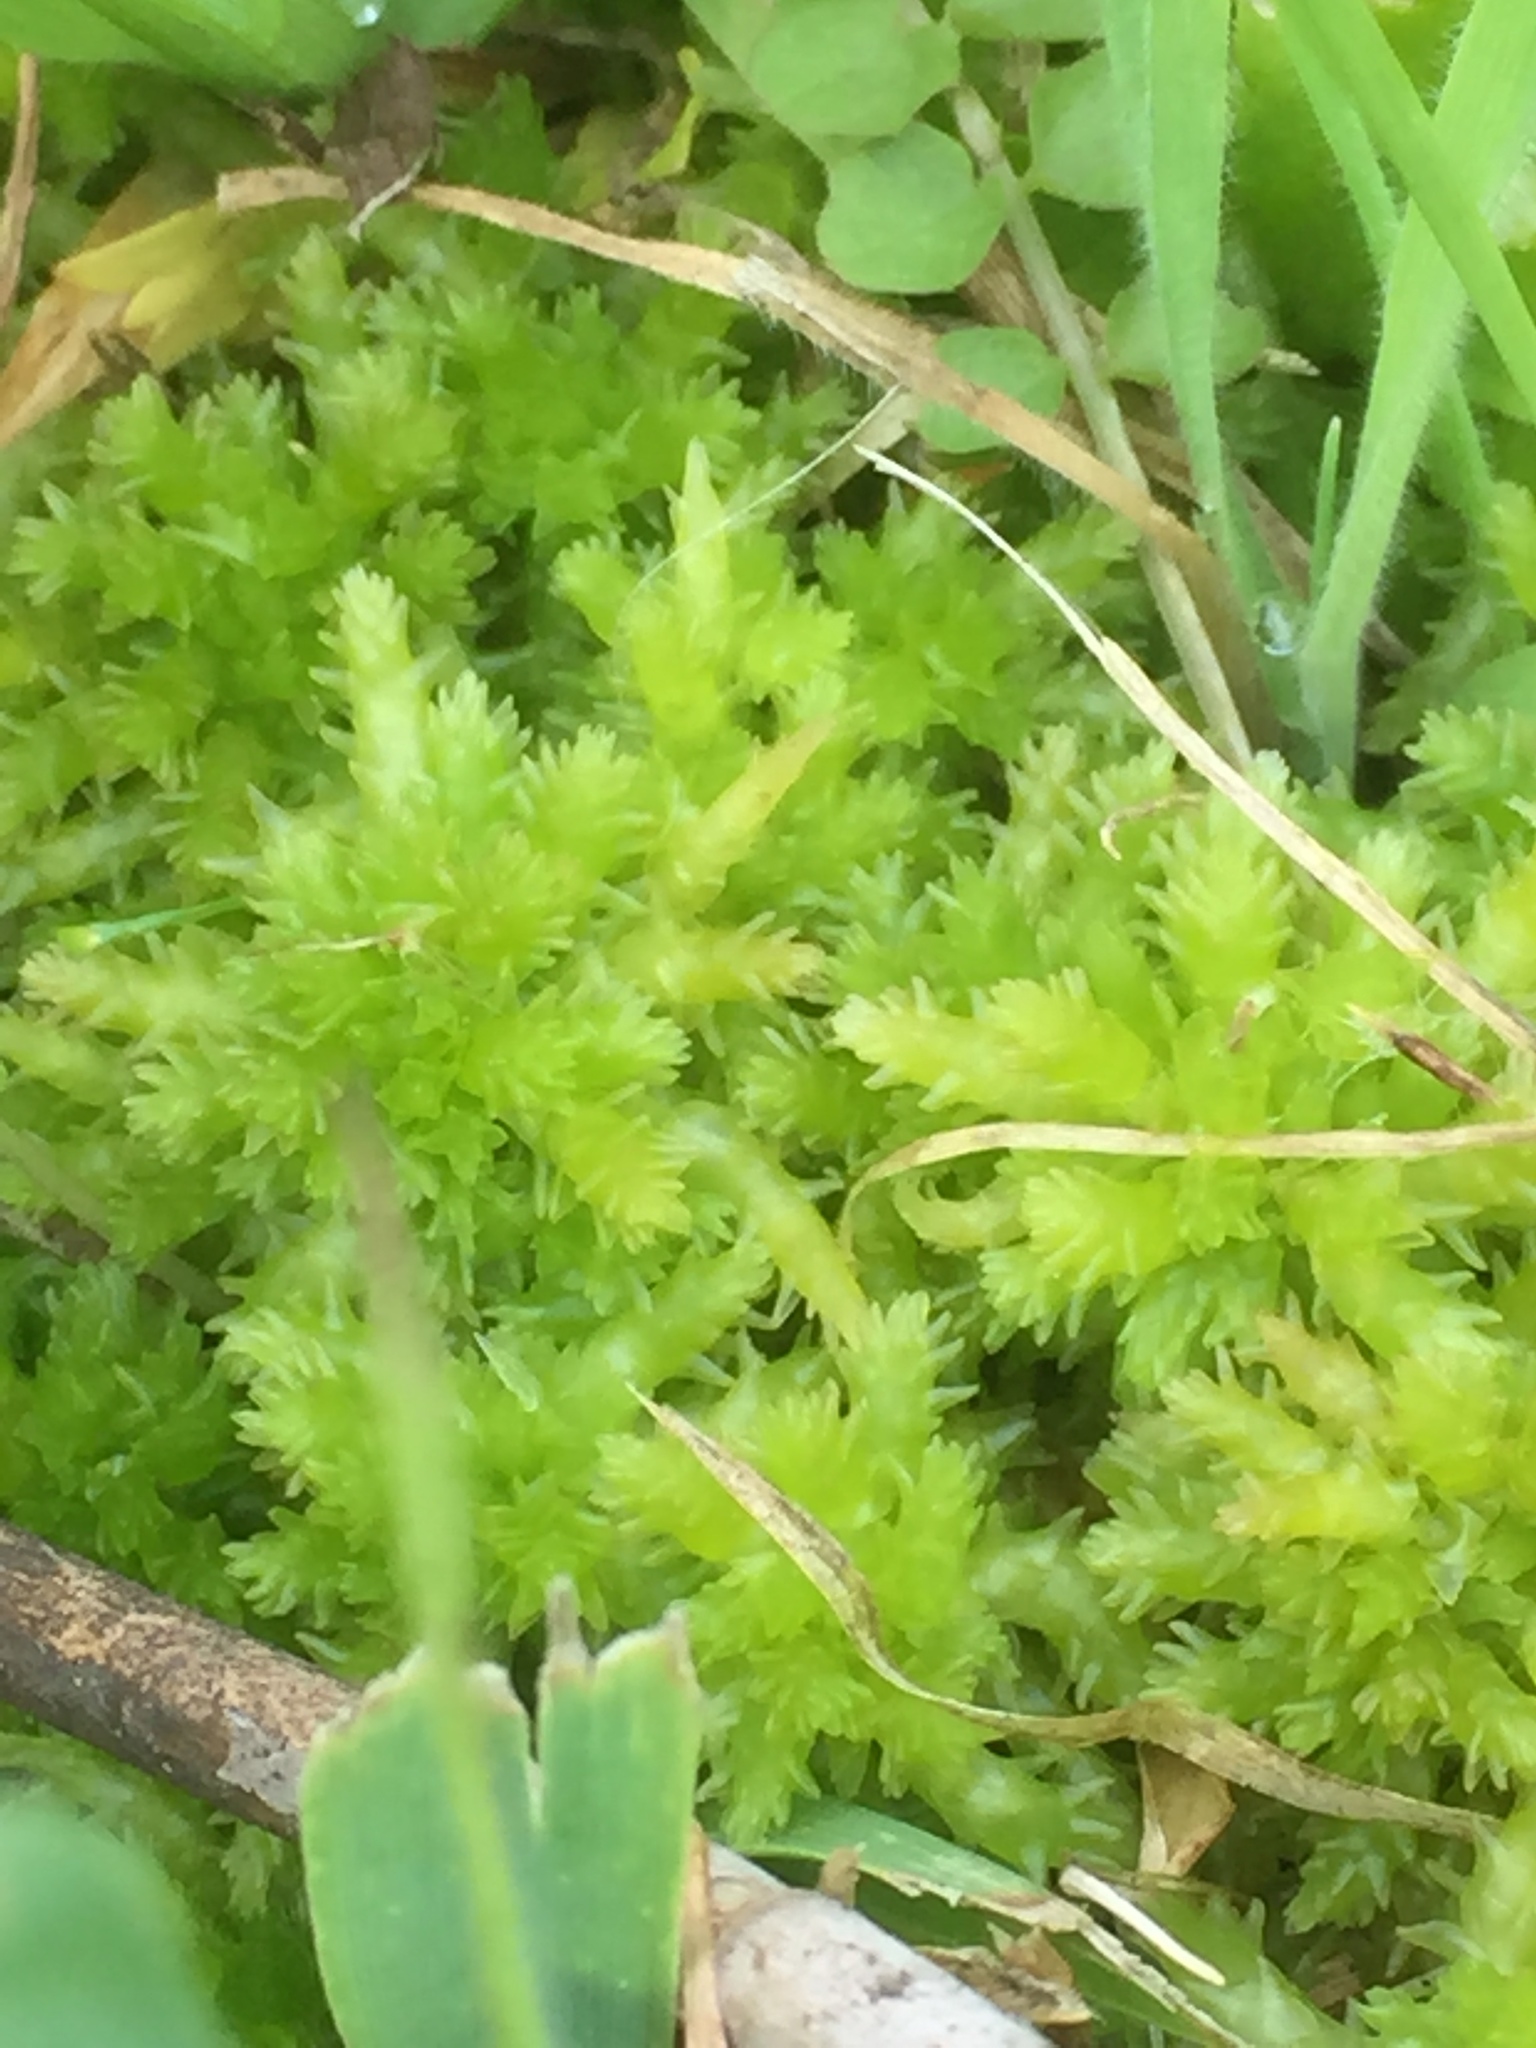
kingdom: Plantae
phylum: Bryophyta
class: Sphagnopsida
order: Sphagnales
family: Sphagnaceae
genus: Sphagnum
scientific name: Sphagnum palustre
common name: Blunt-leaved bog-moss
